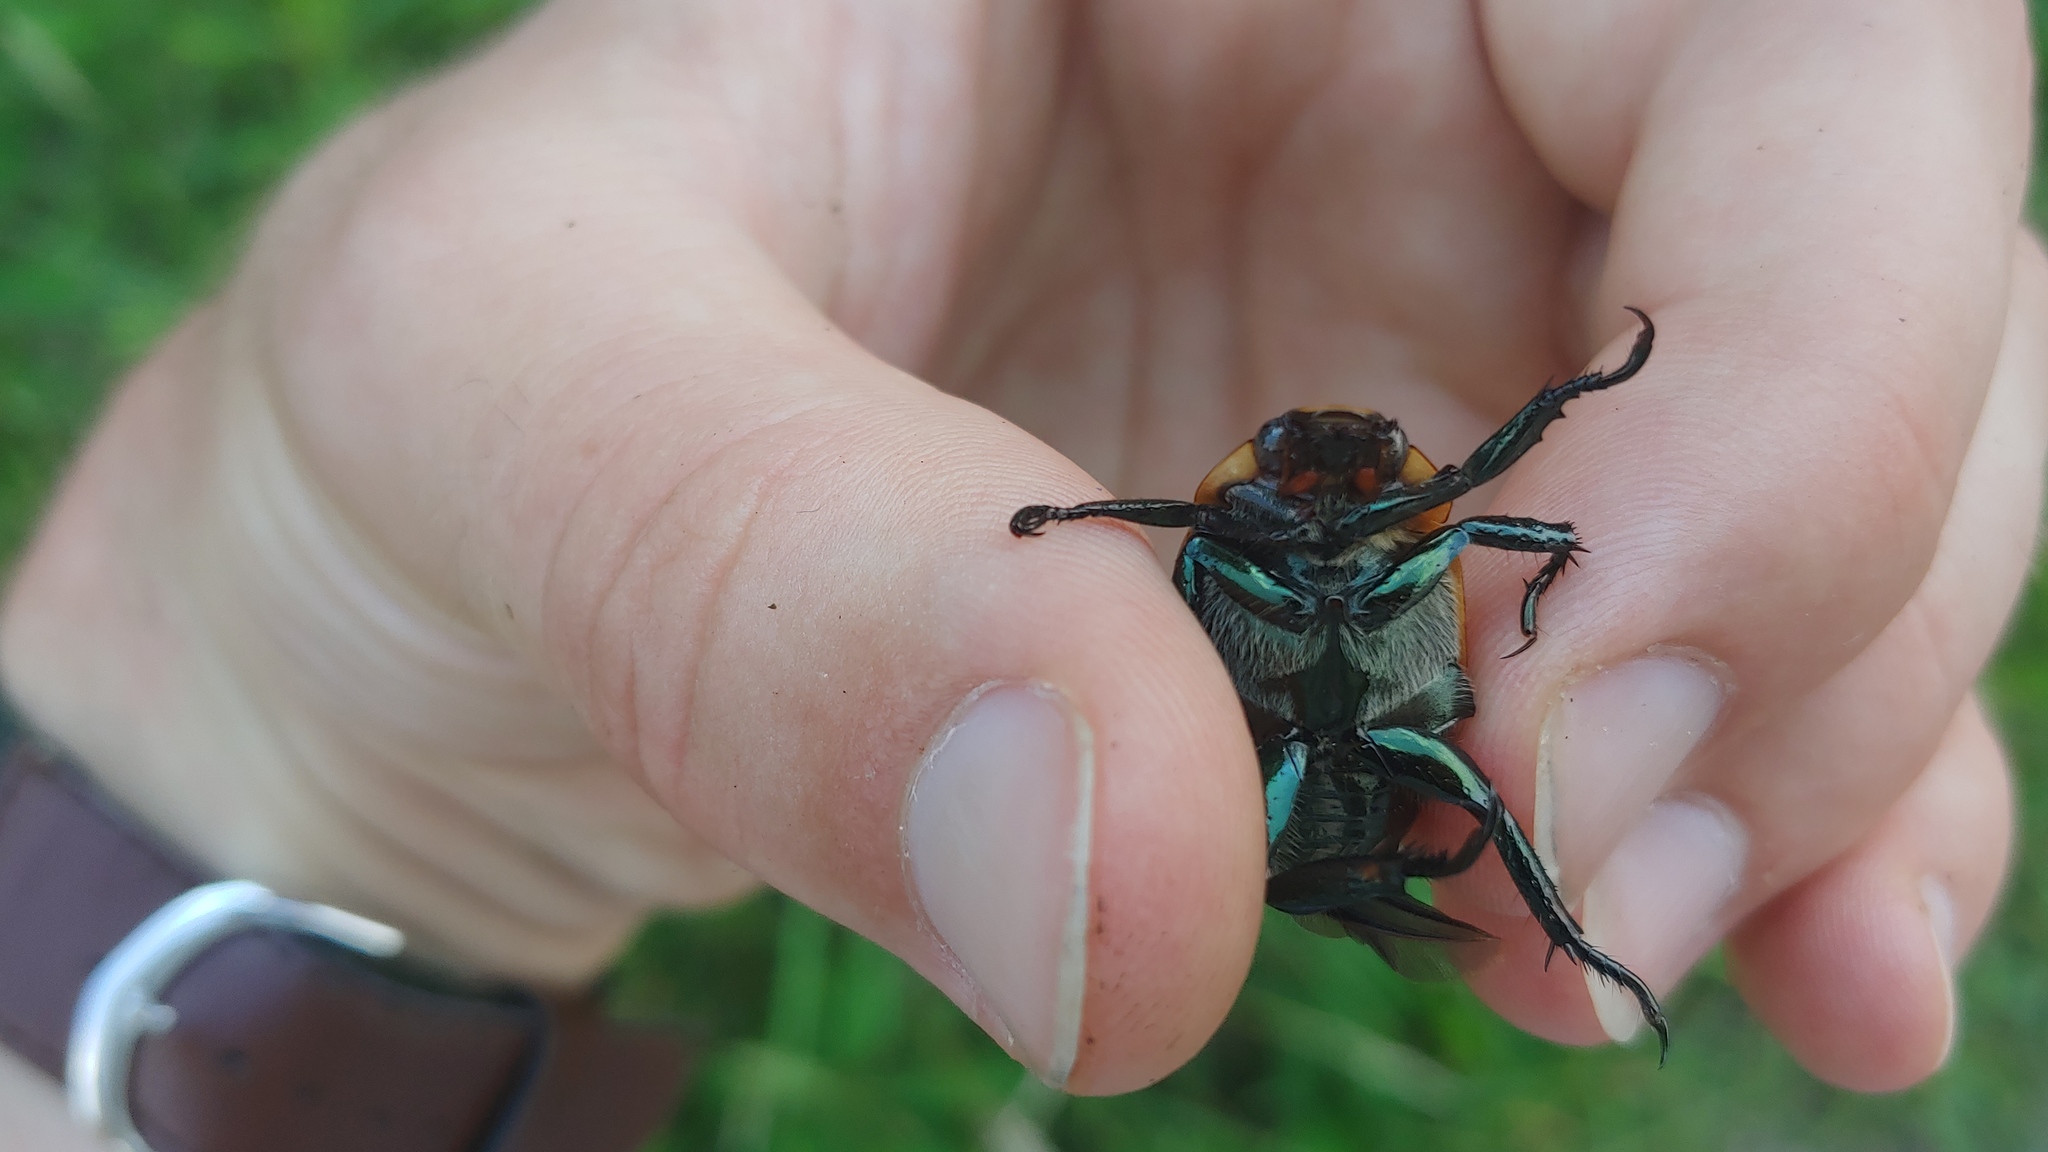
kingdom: Animalia
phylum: Arthropoda
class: Insecta
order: Coleoptera
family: Scarabaeidae
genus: Pelidnota
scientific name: Pelidnota punctata
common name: Grapevine beetle
